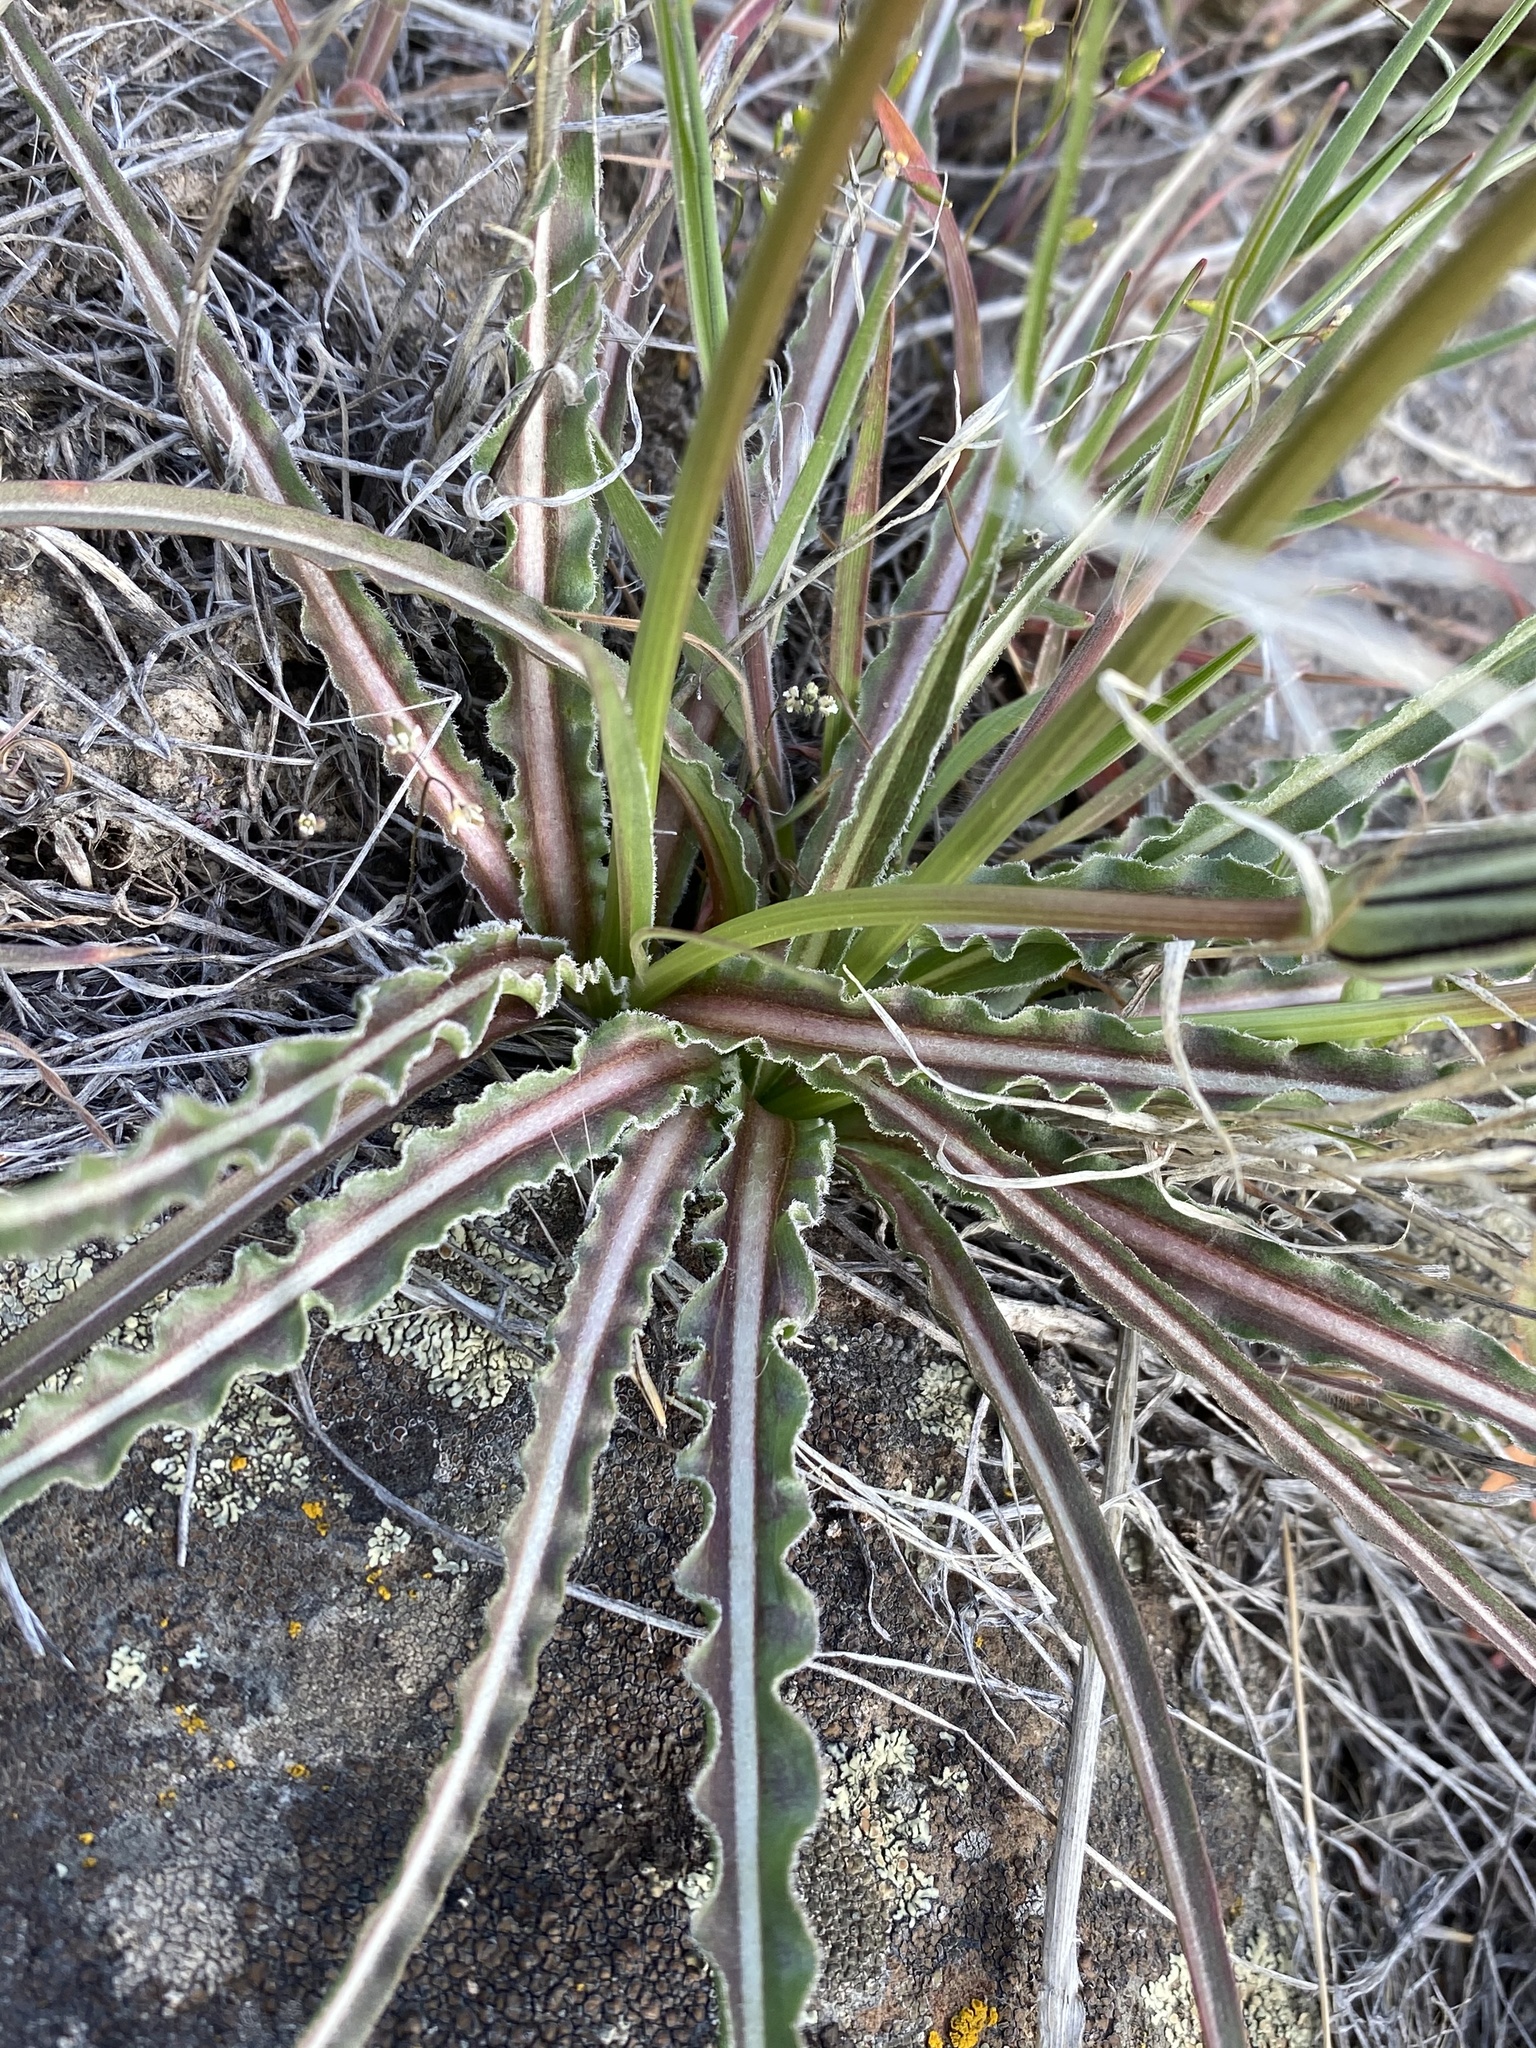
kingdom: Plantae
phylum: Tracheophyta
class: Magnoliopsida
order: Asterales
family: Asteraceae
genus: Microseris
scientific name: Microseris troximoides
